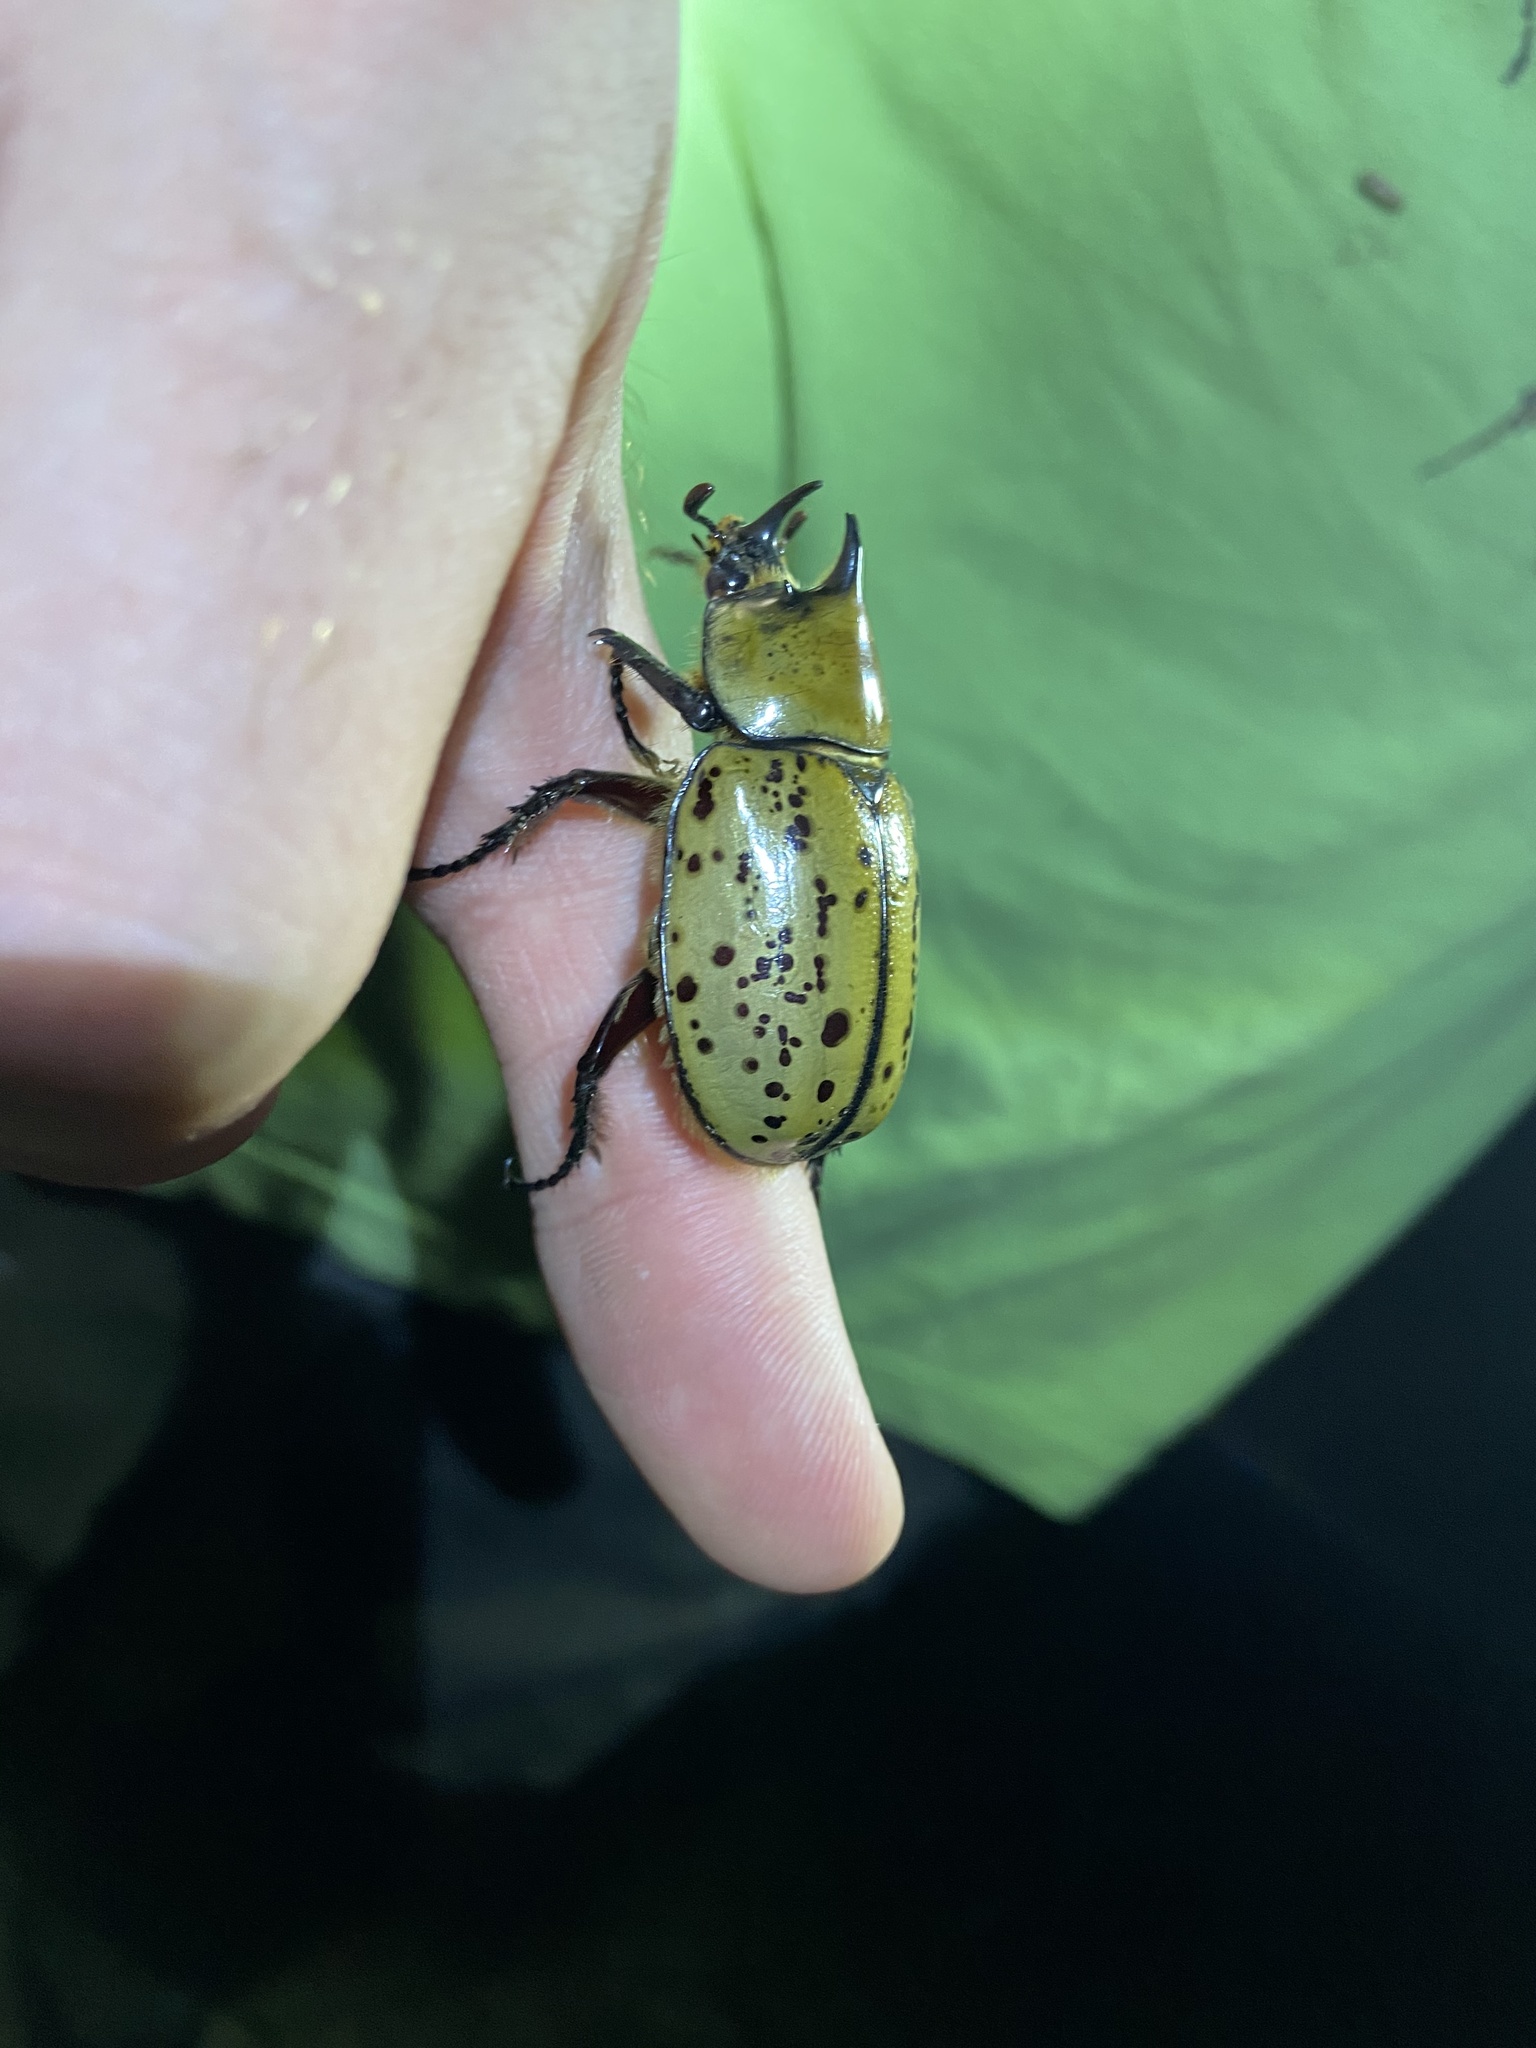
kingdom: Animalia
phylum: Arthropoda
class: Insecta
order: Coleoptera
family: Scarabaeidae
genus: Dynastes
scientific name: Dynastes tityus
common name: Eastern hercules beetle
